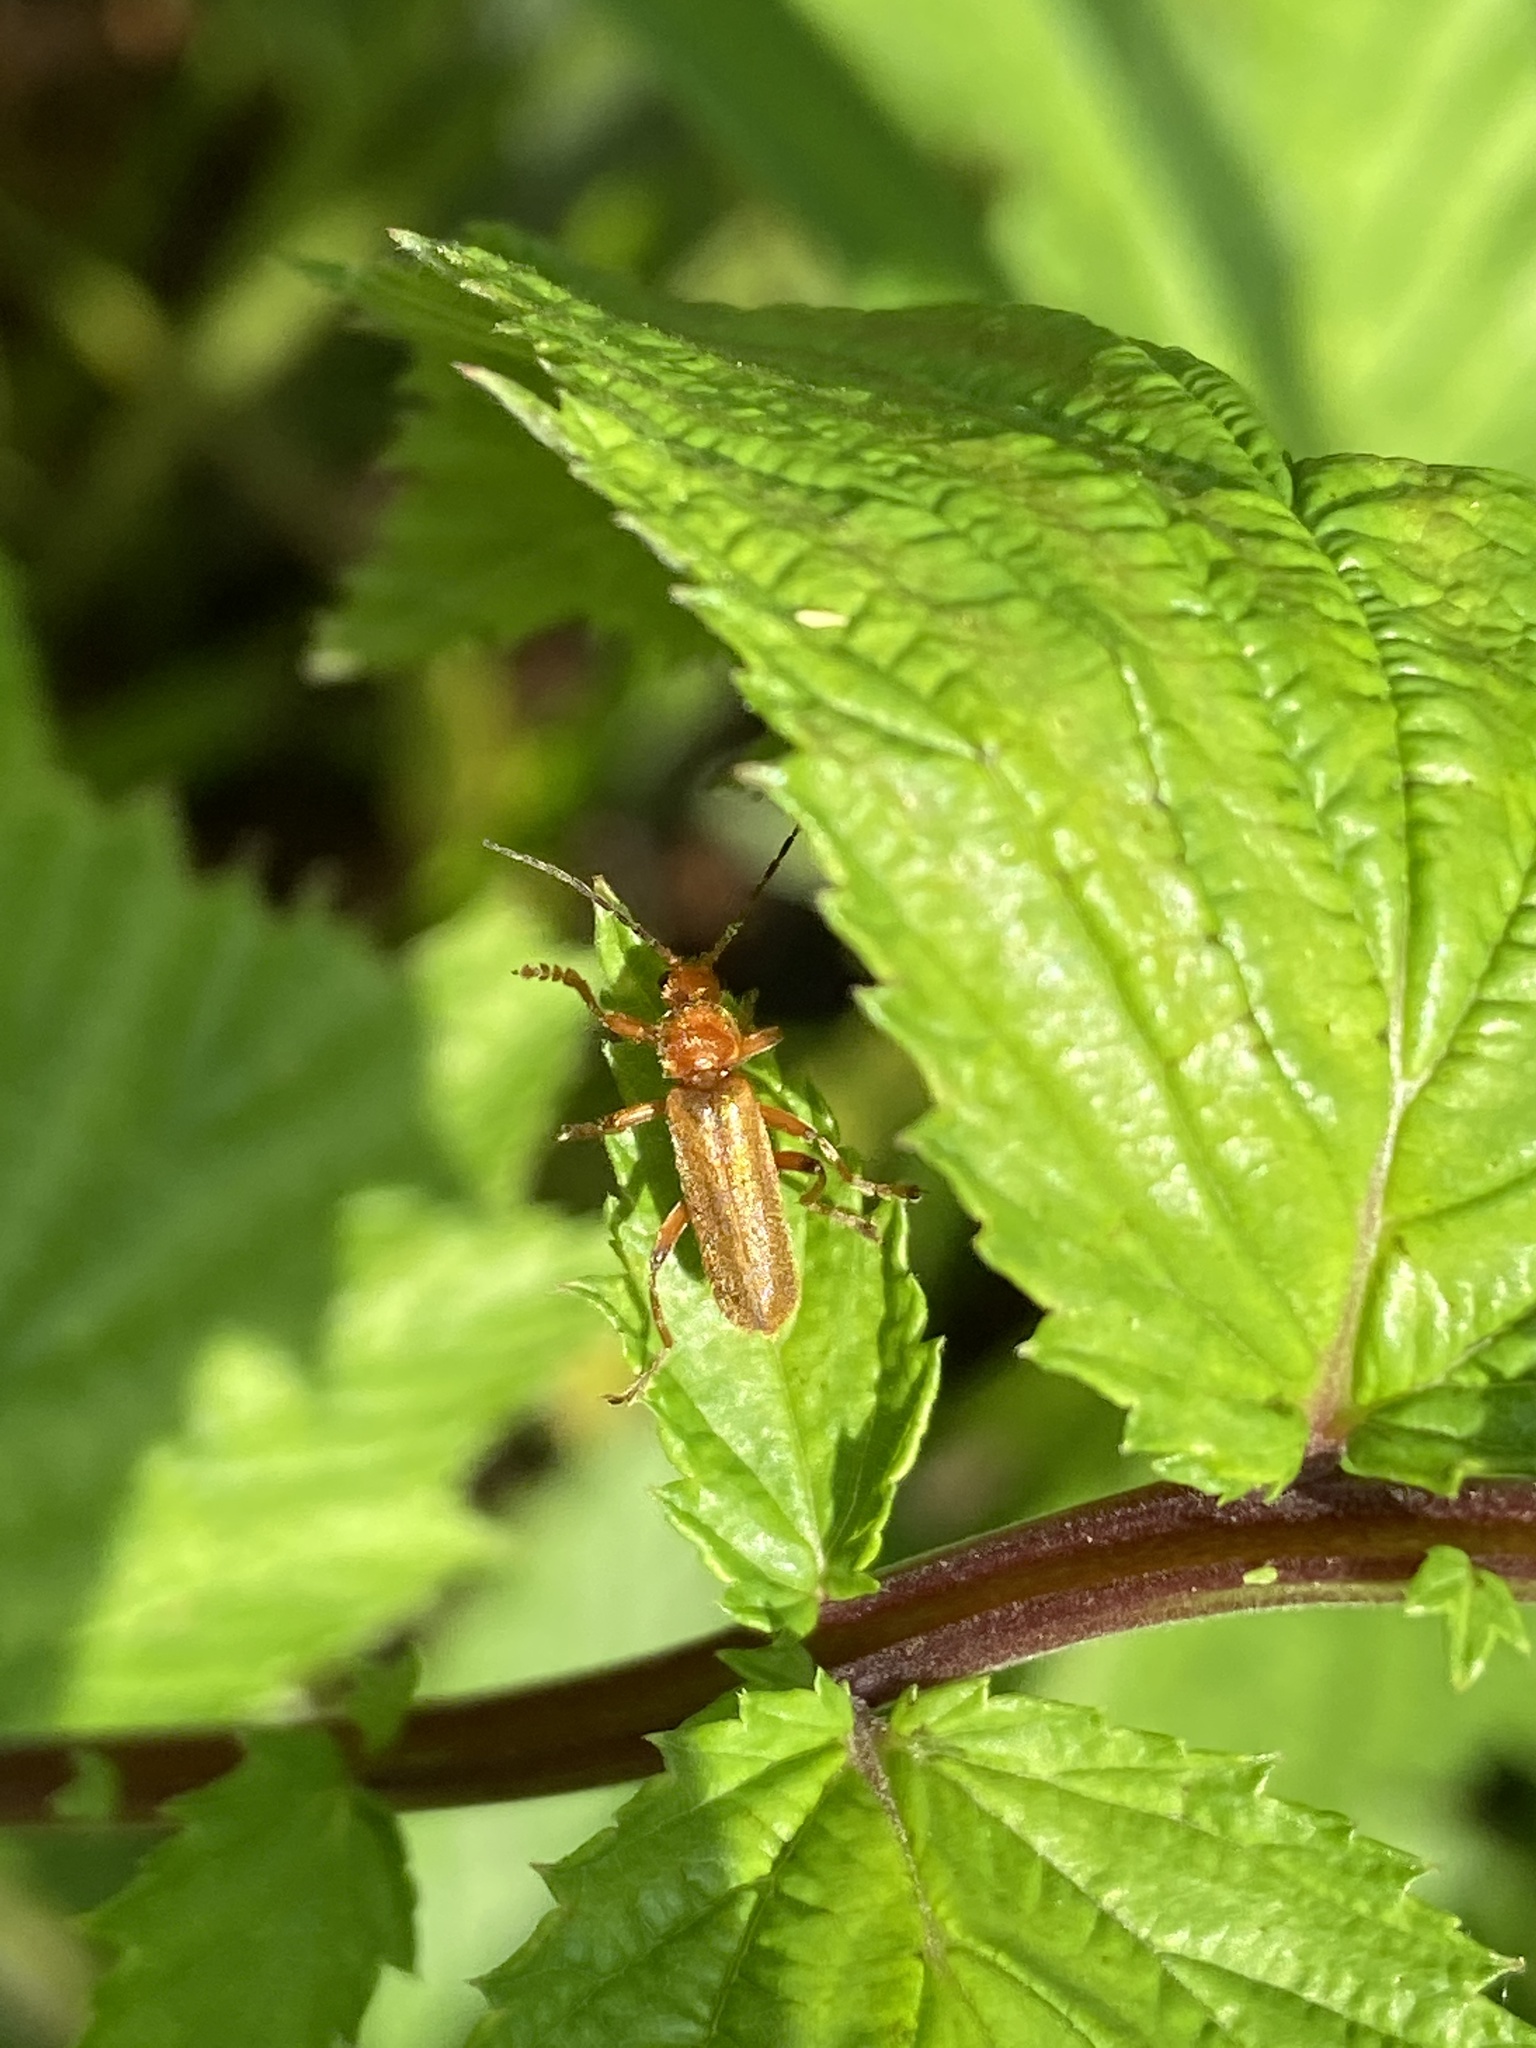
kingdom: Animalia
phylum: Arthropoda
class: Insecta
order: Coleoptera
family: Cantharidae
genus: Cantharis
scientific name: Cantharis rufa
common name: Red-spotted soldier beetle
